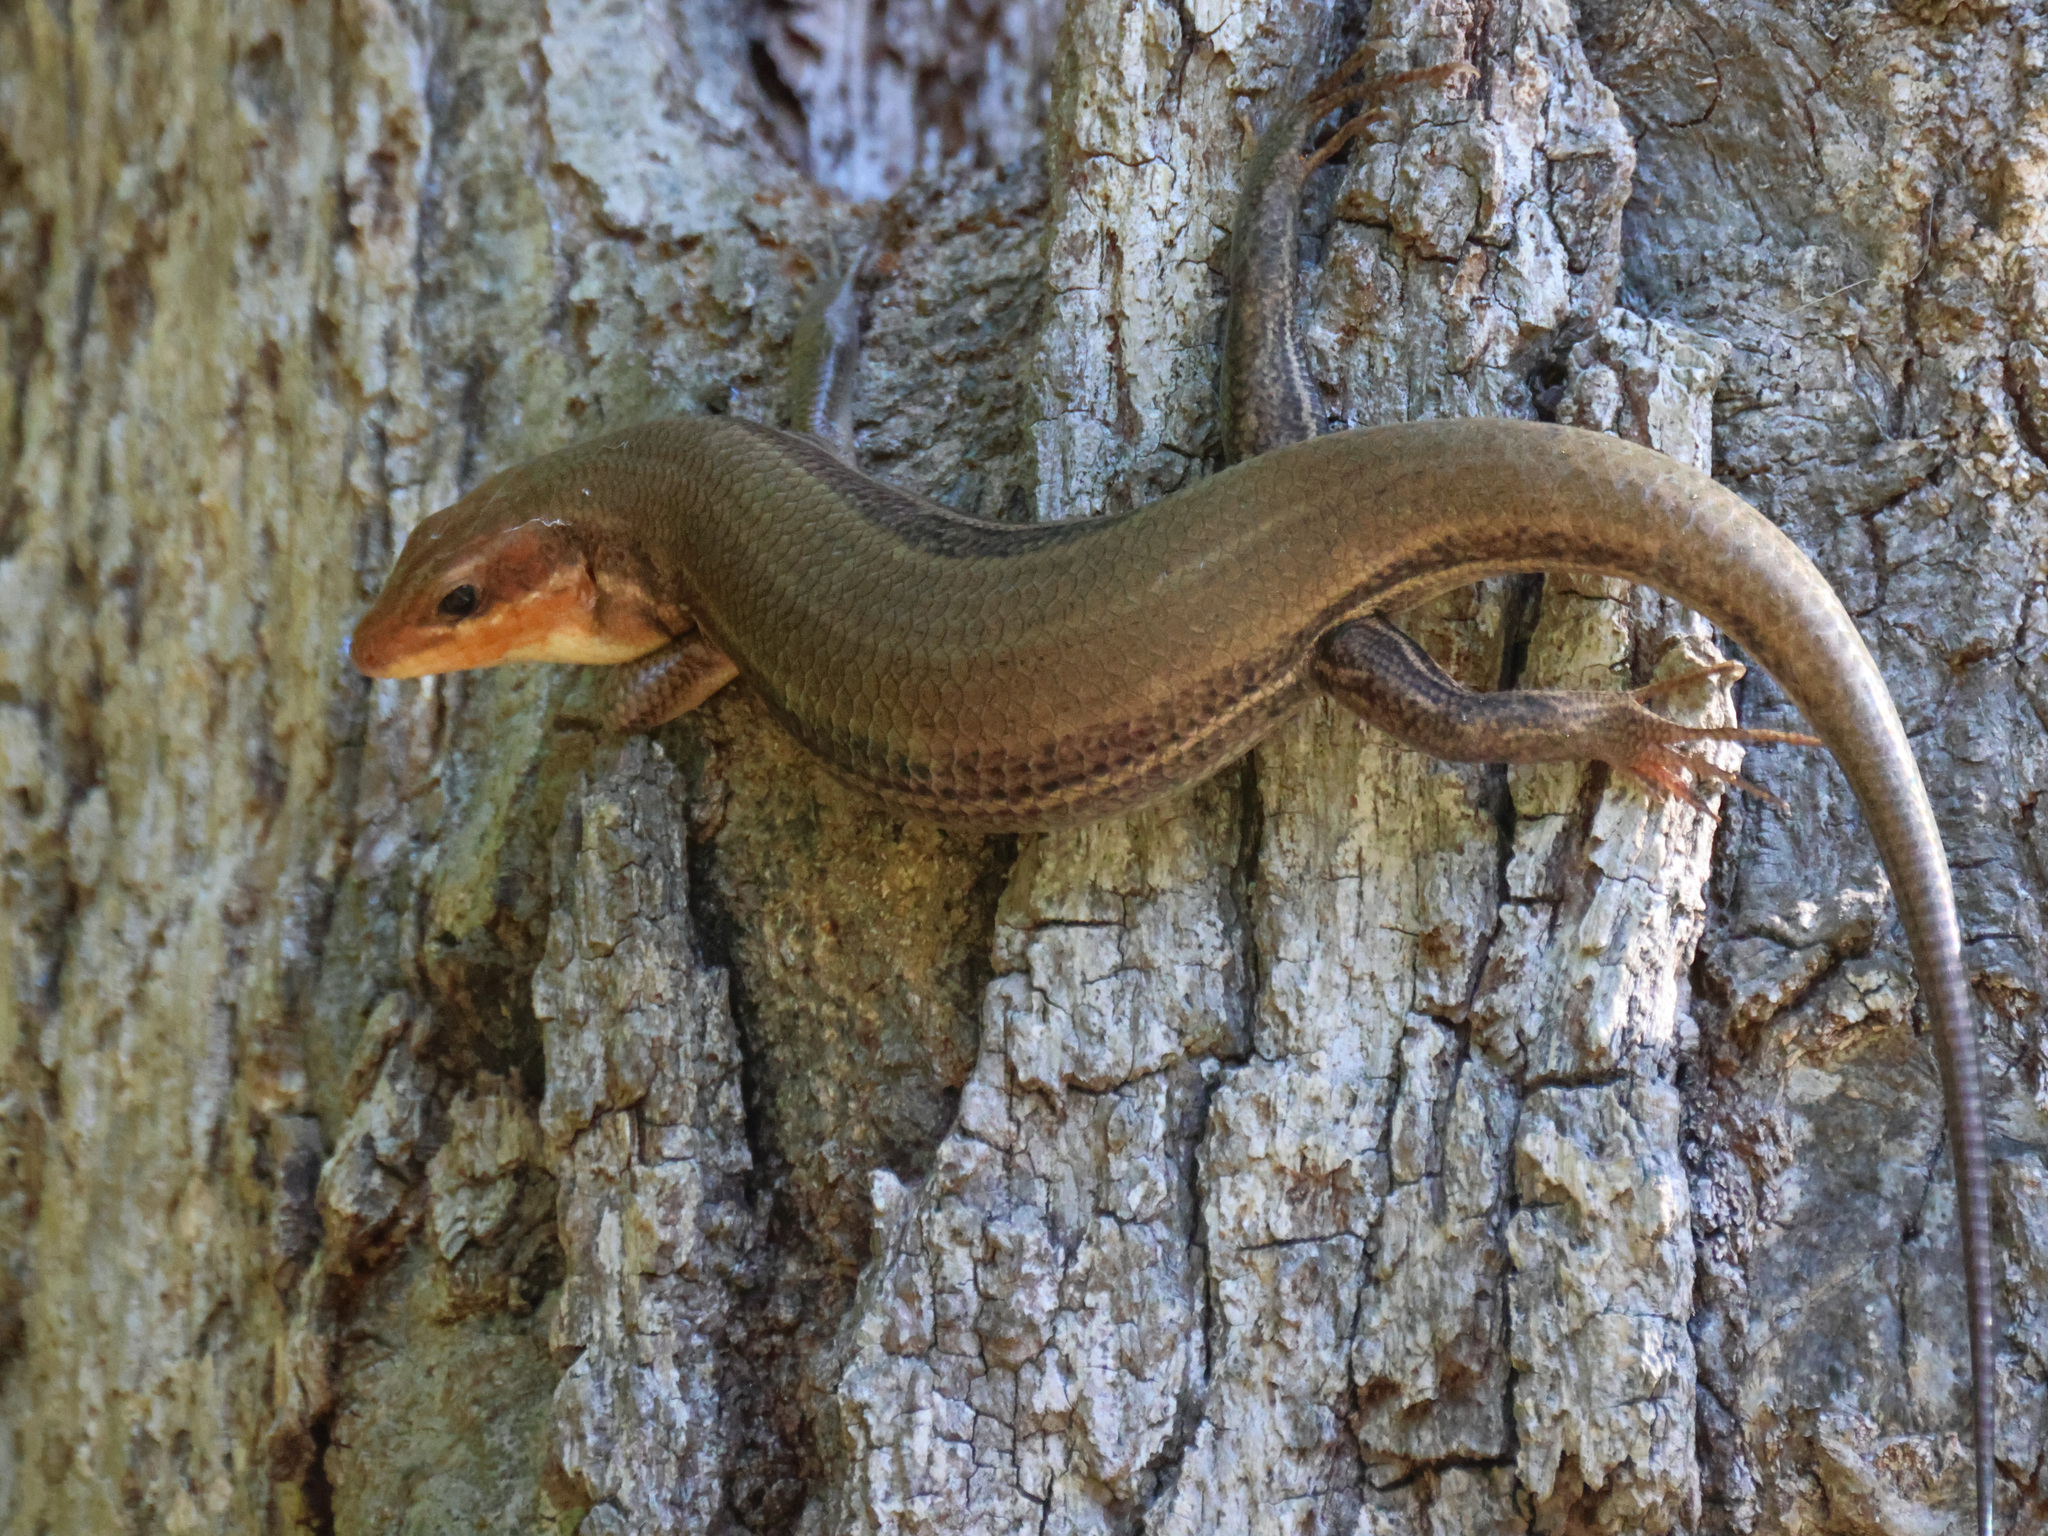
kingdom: Animalia
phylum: Chordata
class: Squamata
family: Scincidae
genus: Plestiodon
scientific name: Plestiodon laticeps
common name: Broadhead skink
